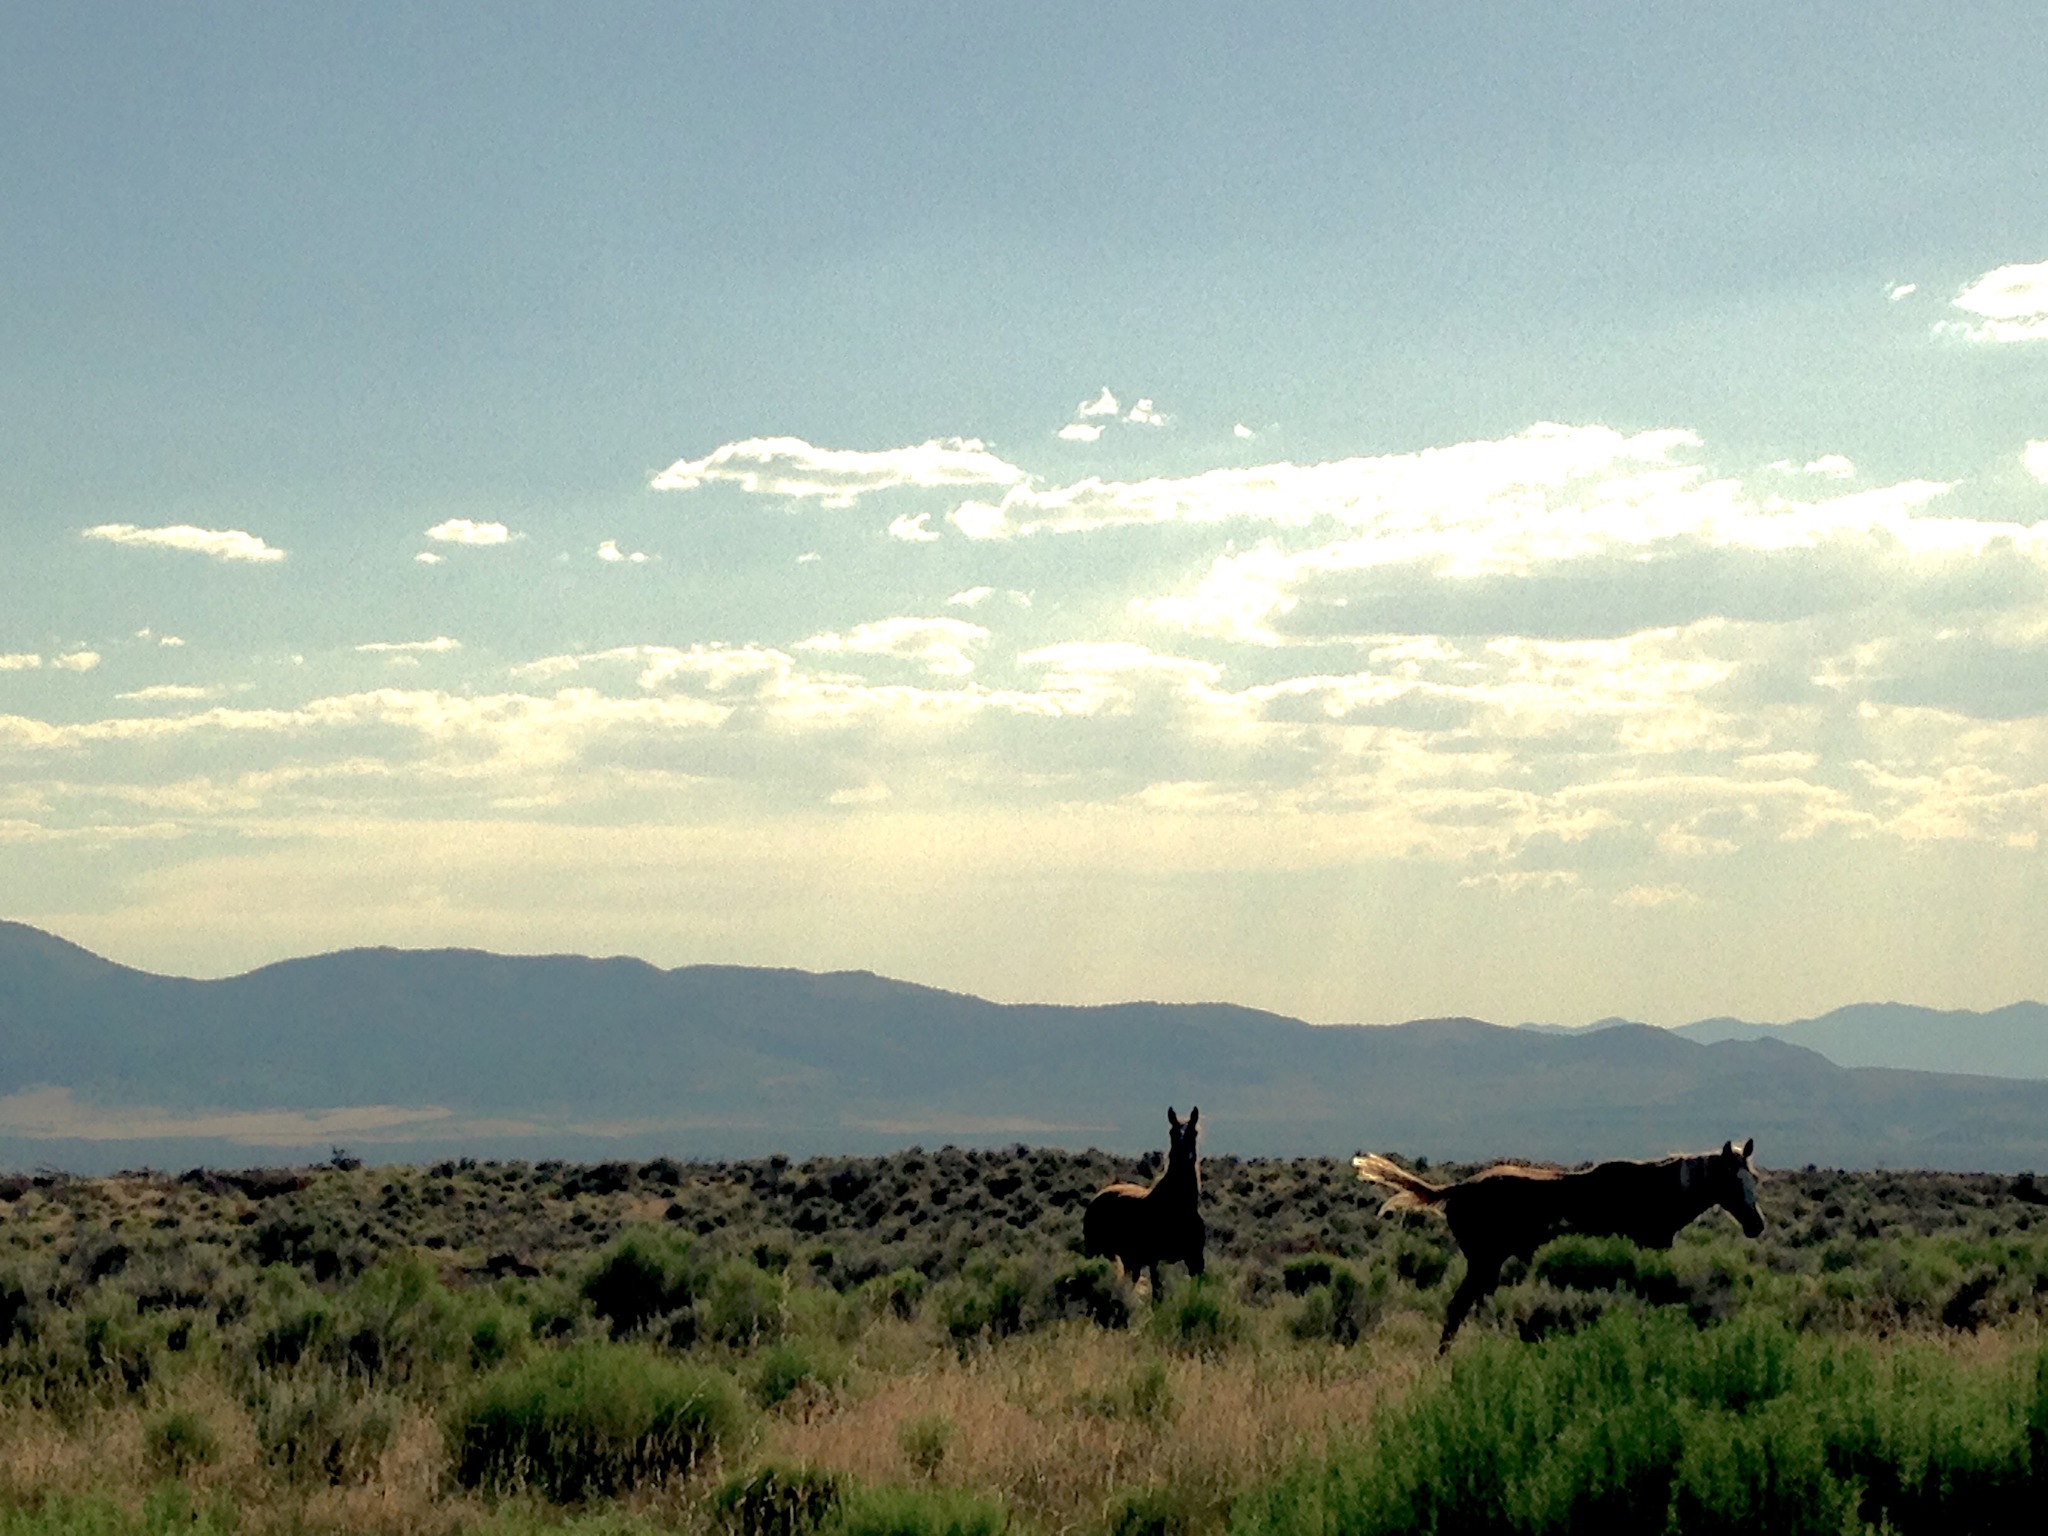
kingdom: Animalia
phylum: Chordata
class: Mammalia
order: Perissodactyla
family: Equidae
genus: Equus
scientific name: Equus caballus
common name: Horse
